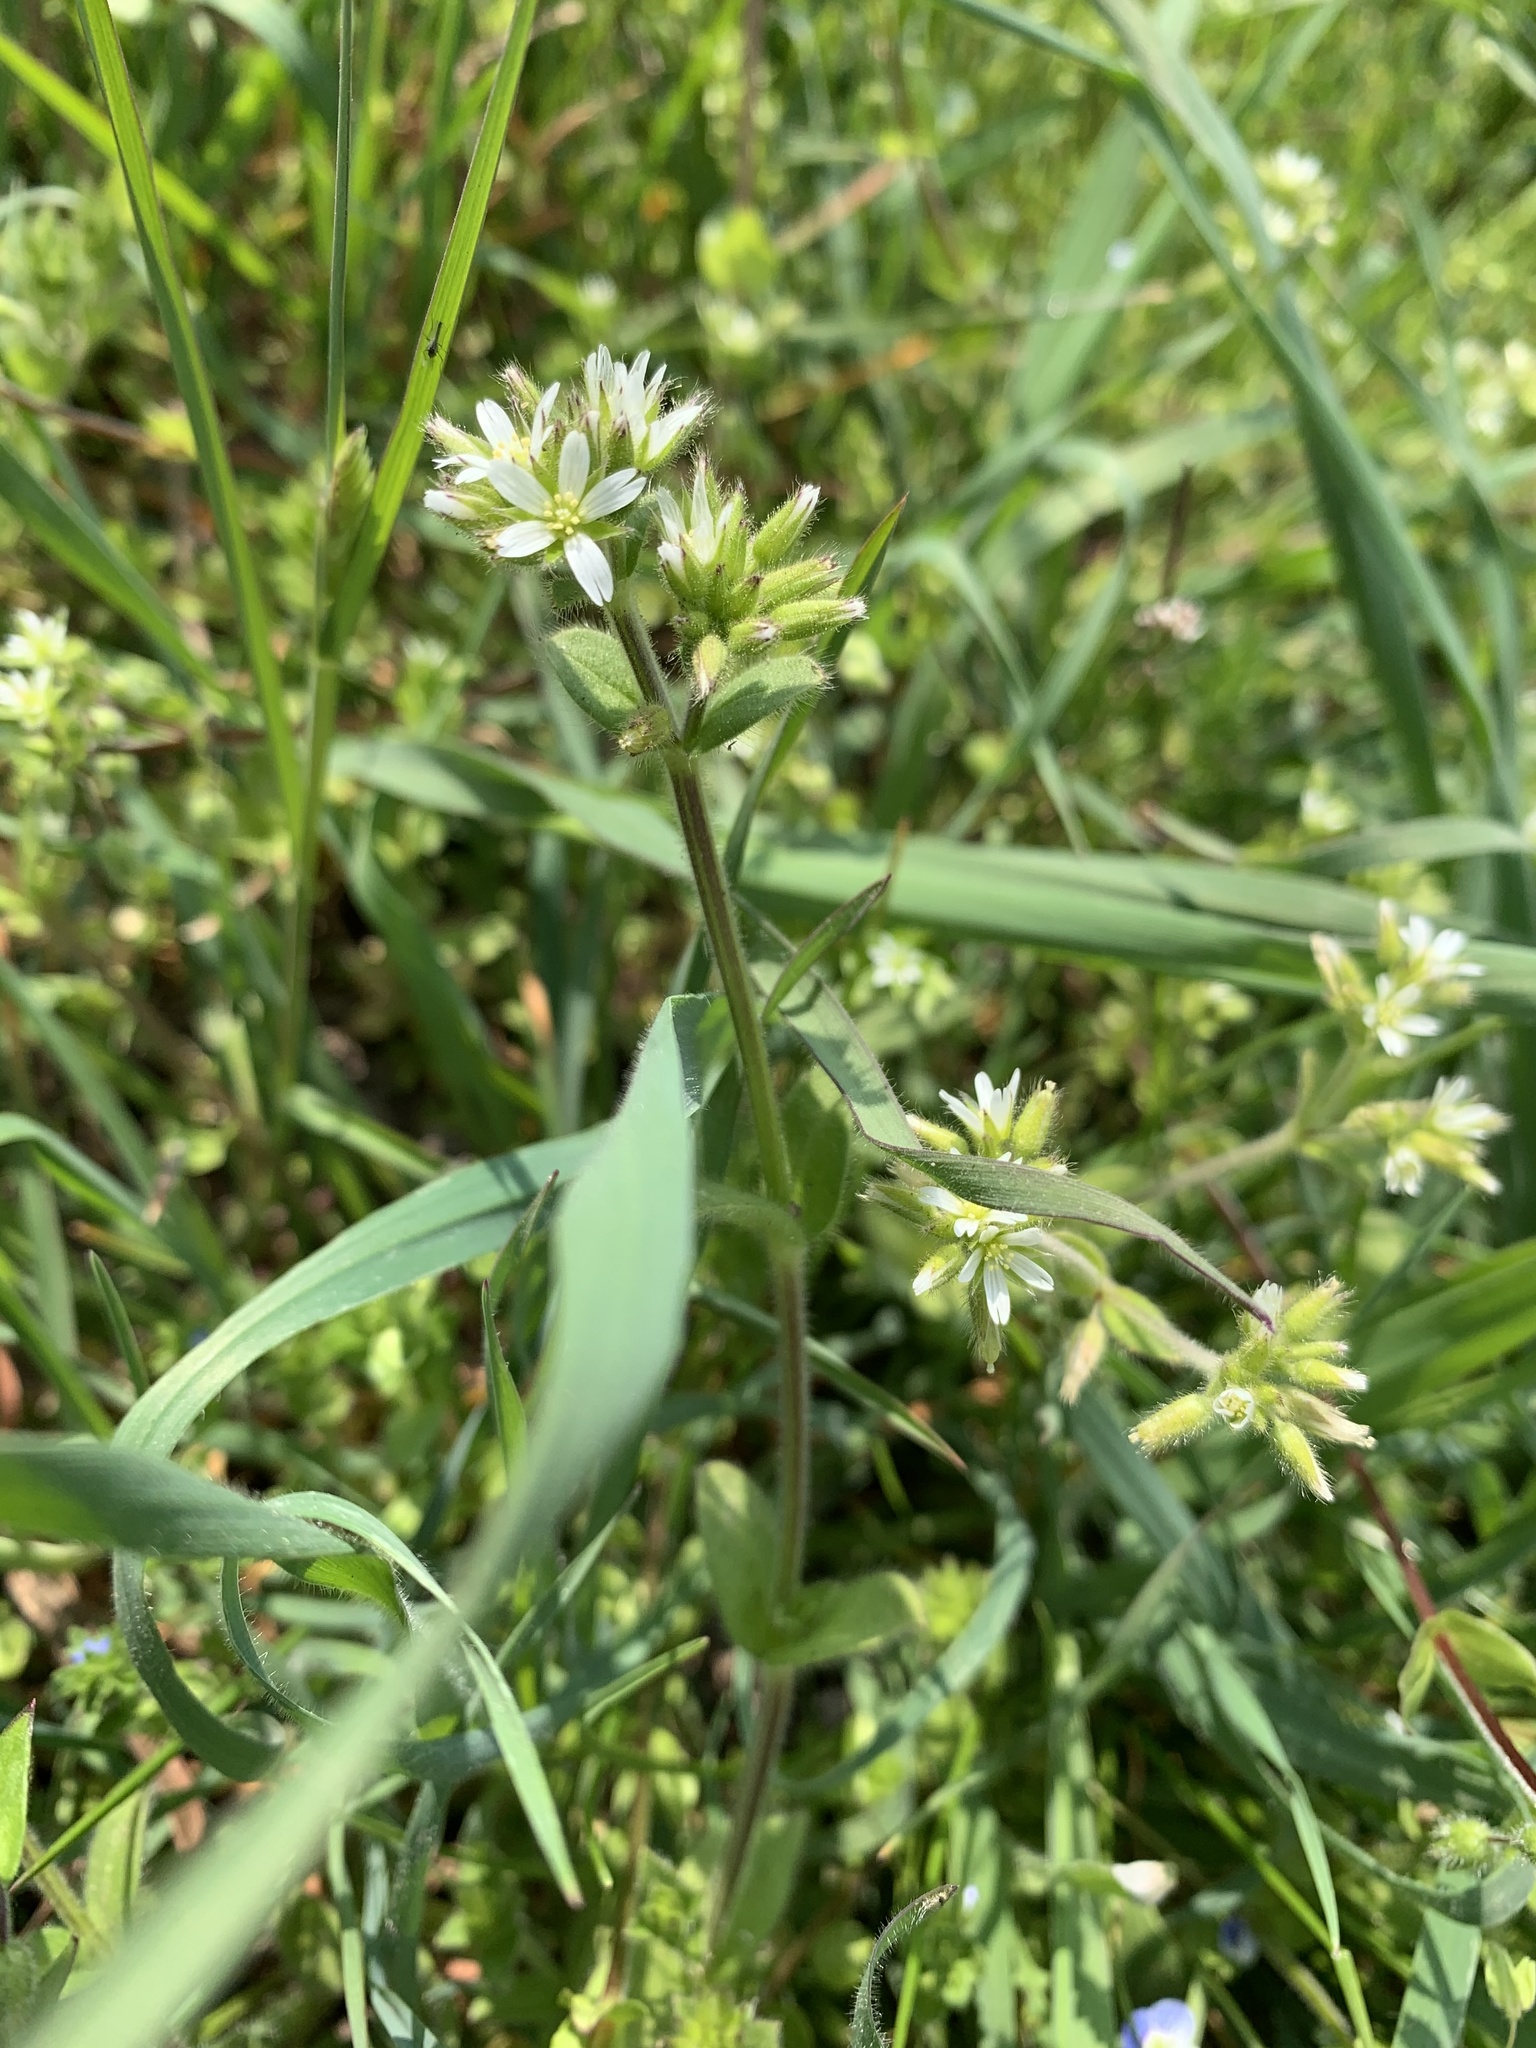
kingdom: Plantae
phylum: Tracheophyta
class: Magnoliopsida
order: Caryophyllales
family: Caryophyllaceae
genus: Cerastium
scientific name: Cerastium glomeratum
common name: Sticky chickweed
